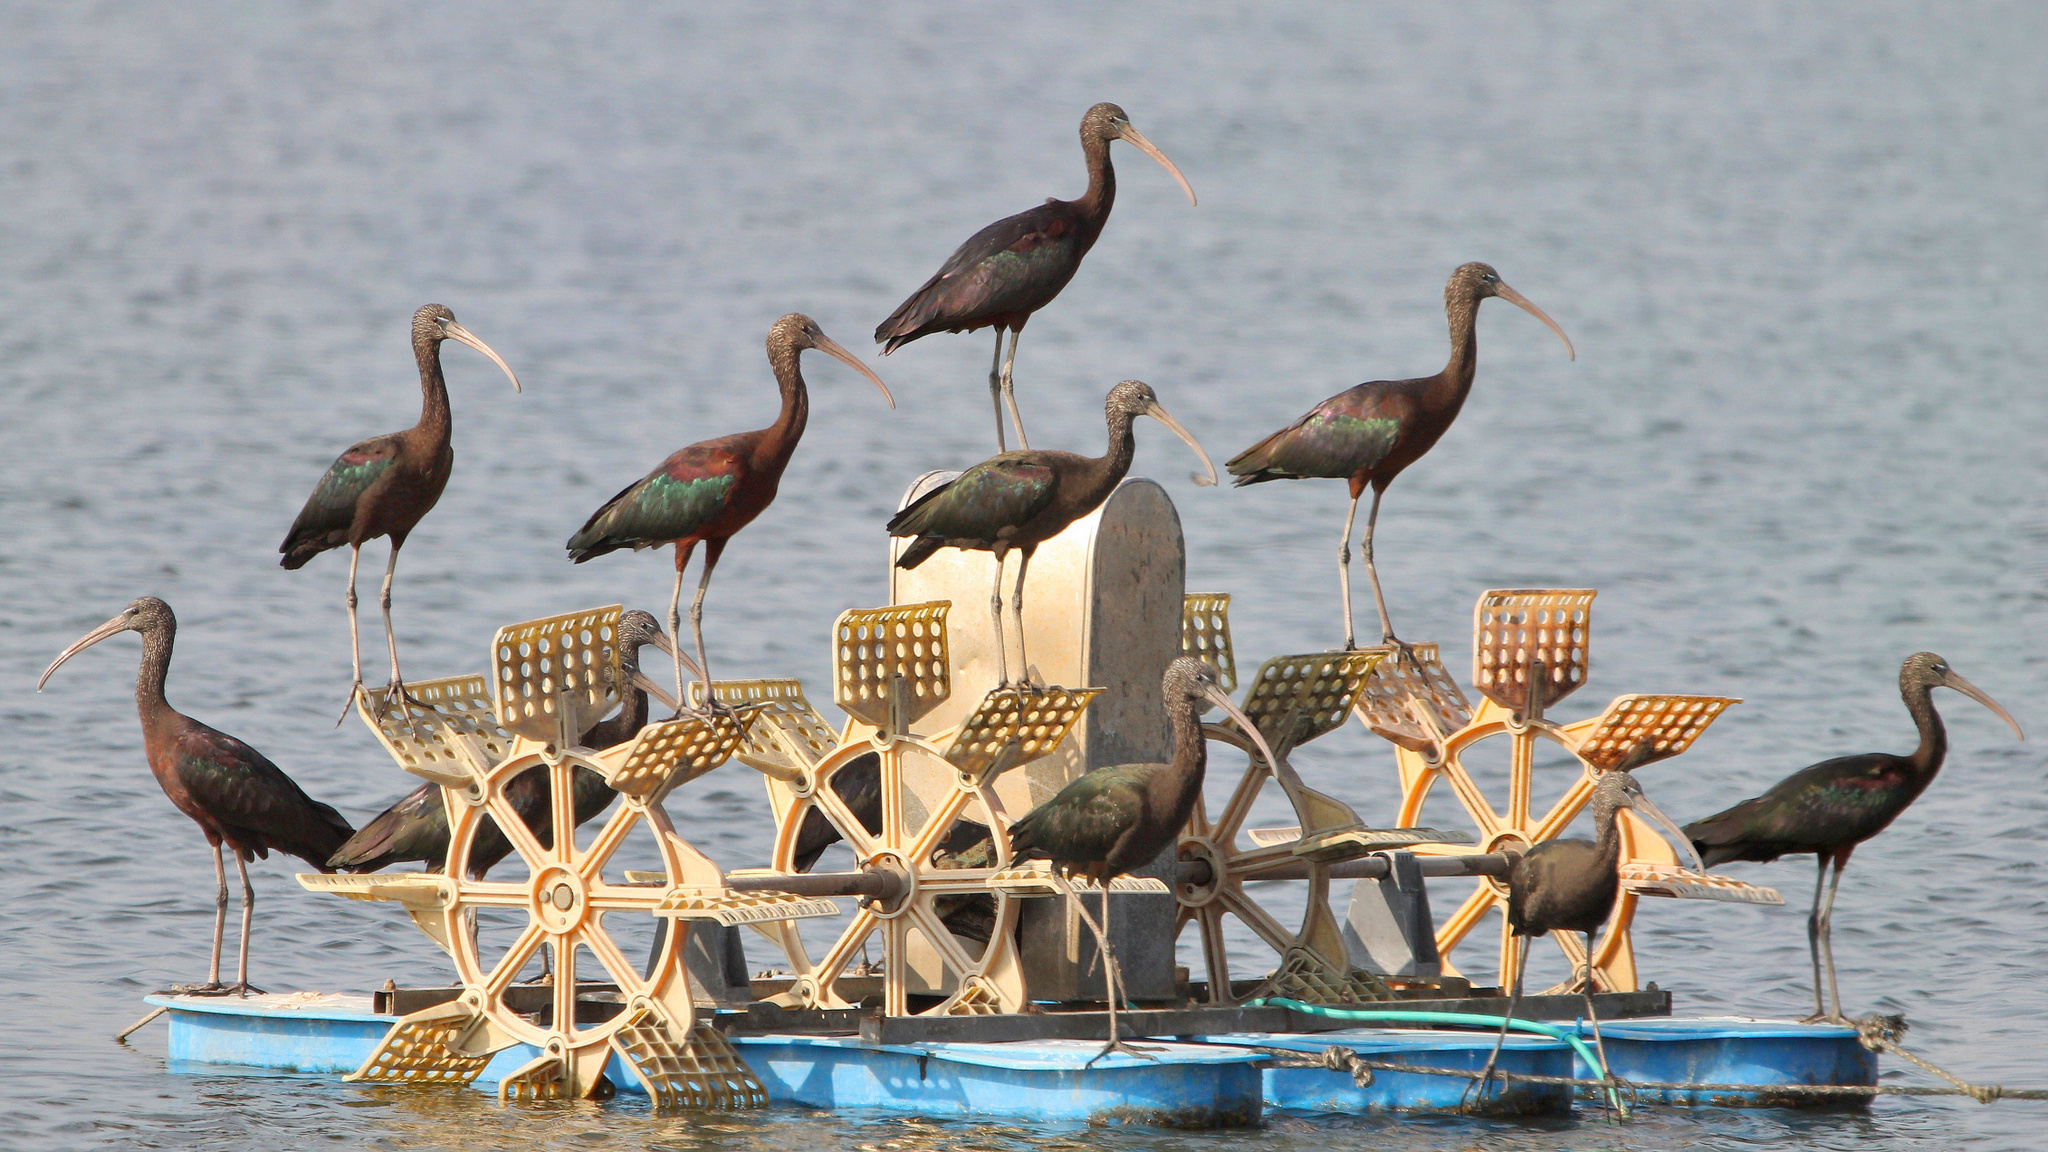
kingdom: Animalia
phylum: Chordata
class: Aves
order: Pelecaniformes
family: Threskiornithidae
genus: Plegadis
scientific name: Plegadis falcinellus
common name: Glossy ibis
